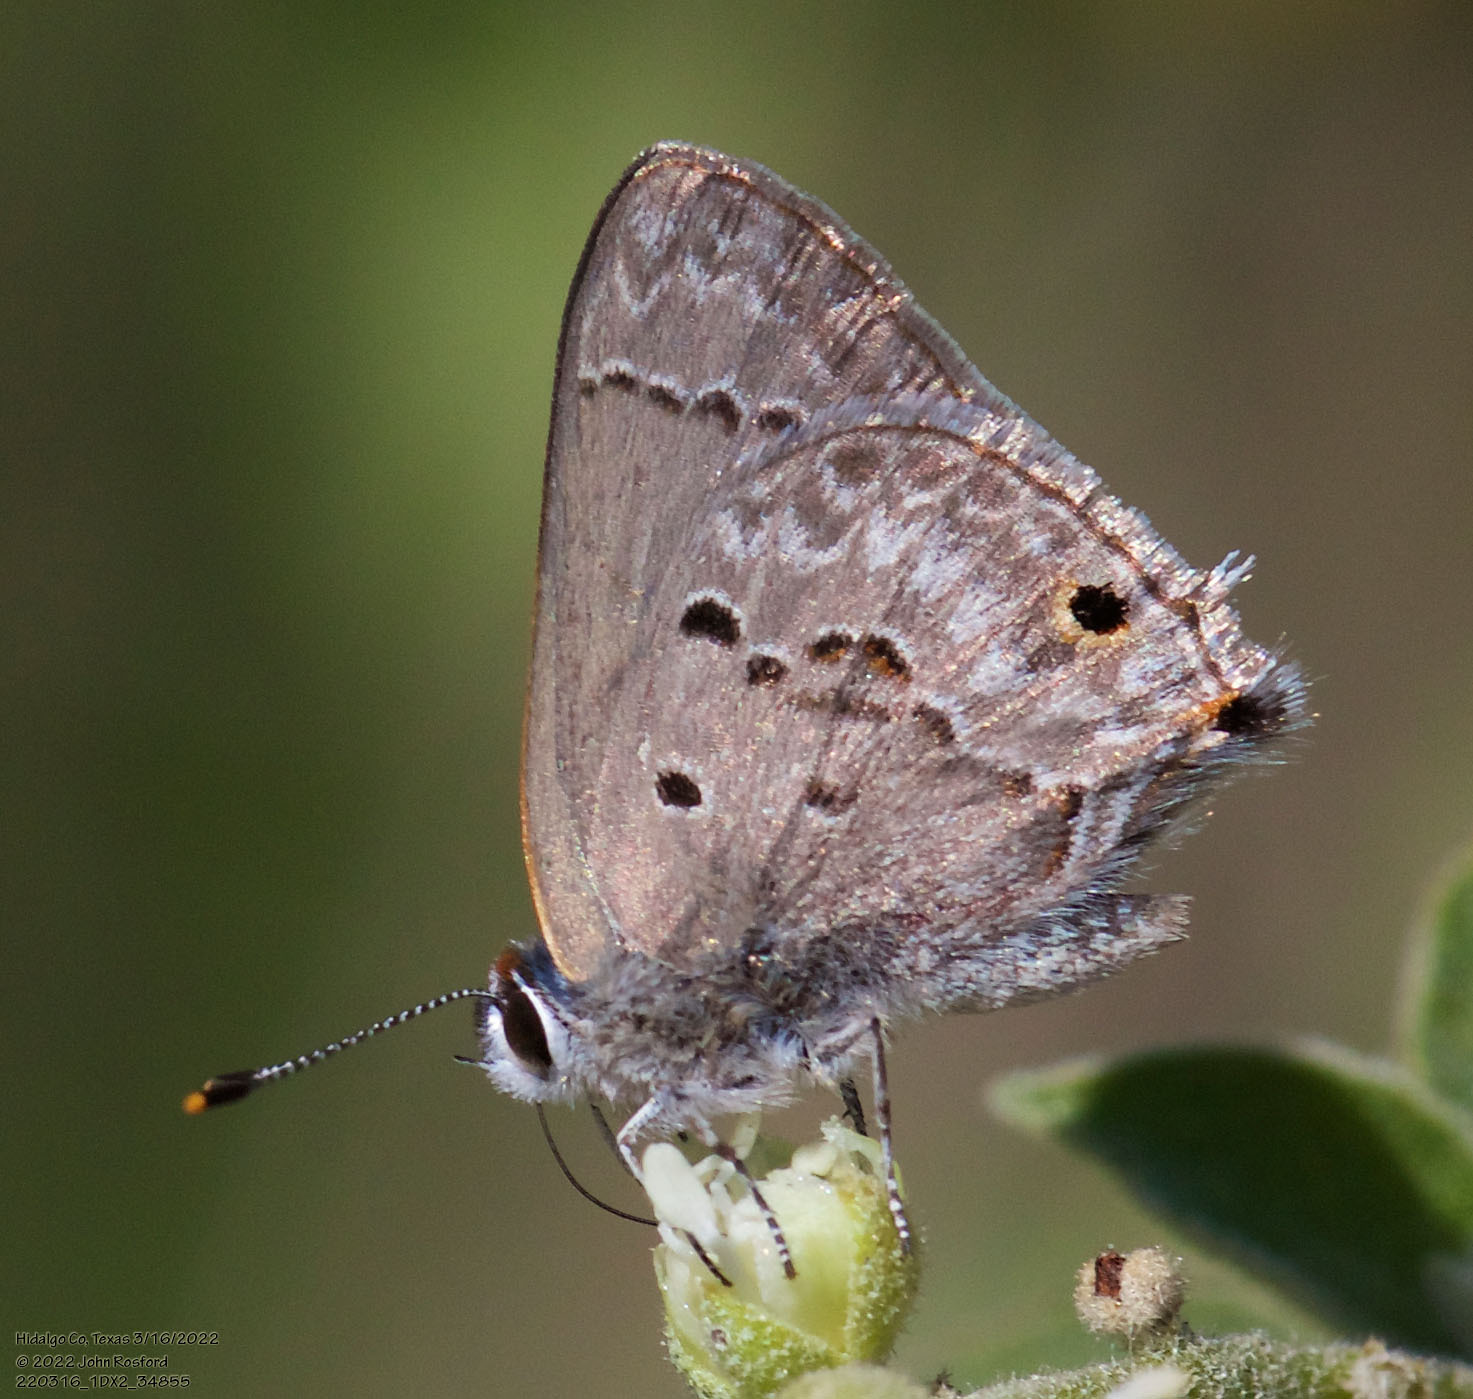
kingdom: Animalia
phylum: Arthropoda
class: Insecta
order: Lepidoptera
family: Lycaenidae
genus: Callicista
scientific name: Callicista columella
